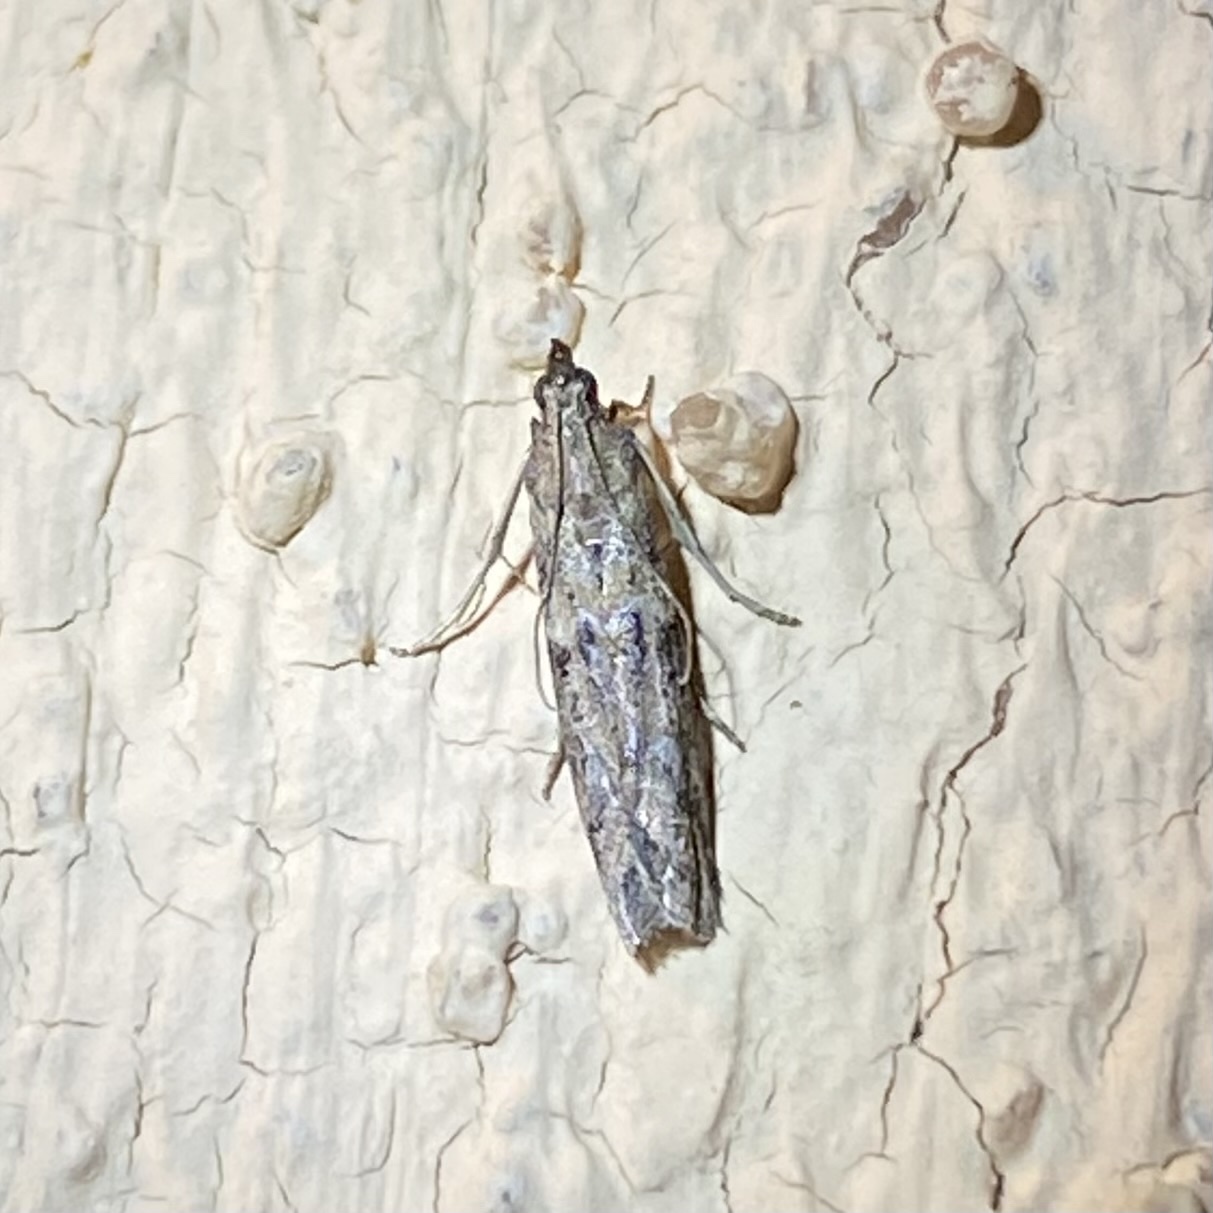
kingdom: Animalia
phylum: Arthropoda
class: Insecta
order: Lepidoptera
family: Pyralidae
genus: Ephestiodes
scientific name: Ephestiodes gilvescentella
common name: Moth
